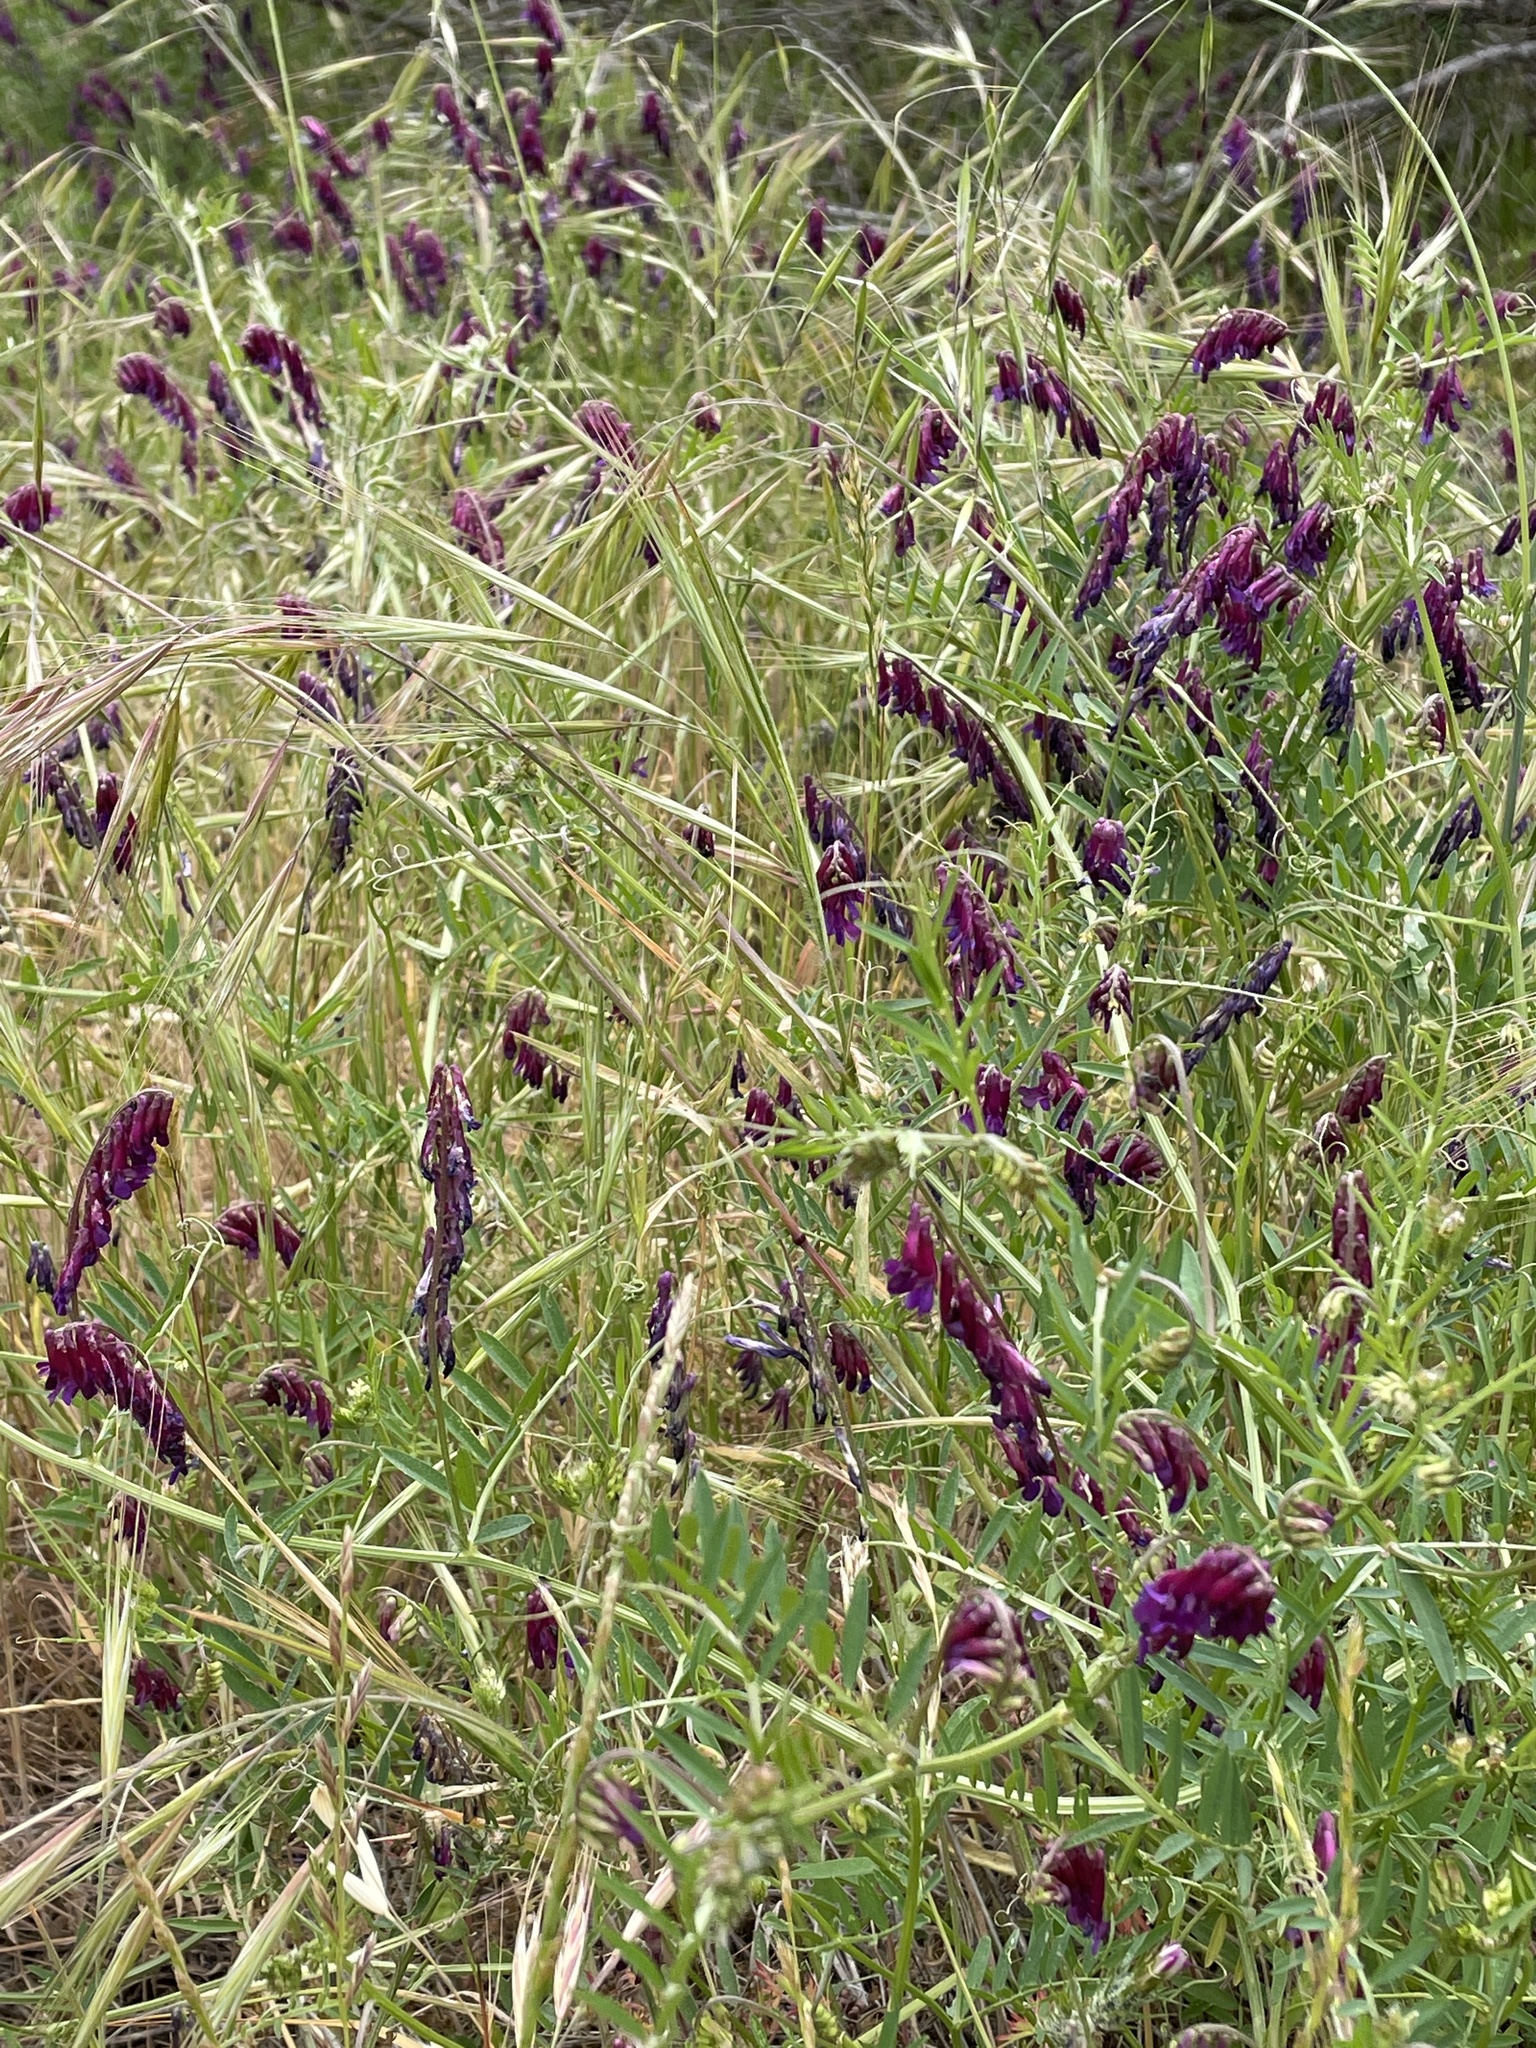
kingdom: Plantae
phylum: Tracheophyta
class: Magnoliopsida
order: Fabales
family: Fabaceae
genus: Vicia
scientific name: Vicia villosa
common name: Fodder vetch
